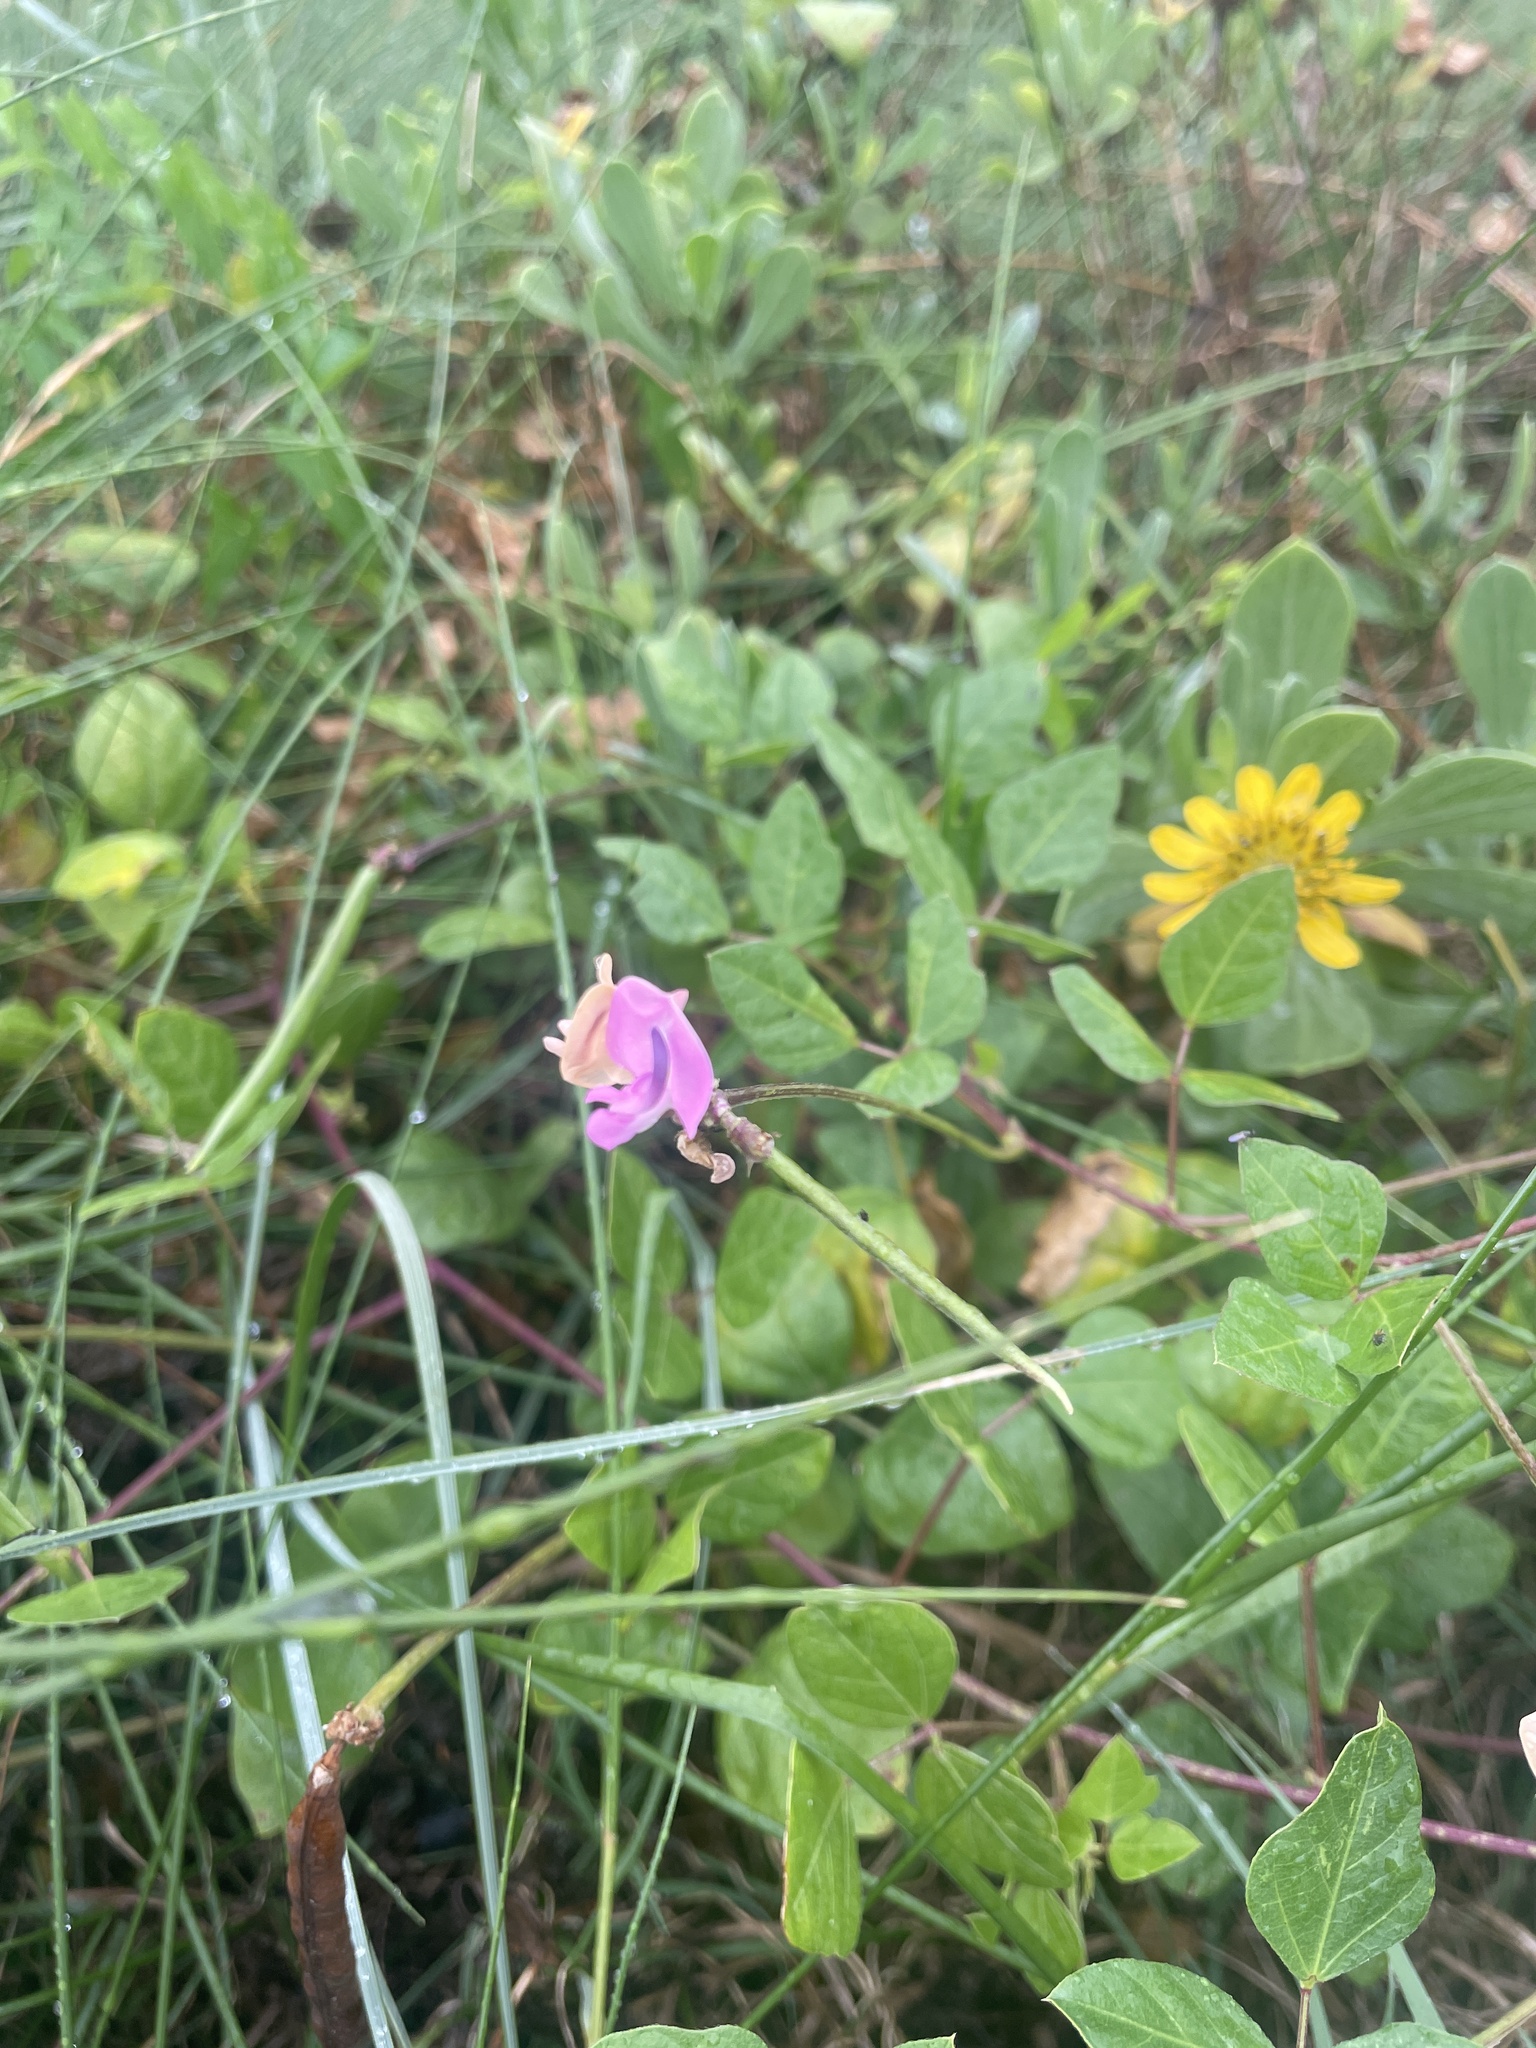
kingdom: Plantae
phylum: Tracheophyta
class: Magnoliopsida
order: Fabales
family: Fabaceae
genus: Strophostyles
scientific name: Strophostyles helvola
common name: Trailing wild bean
